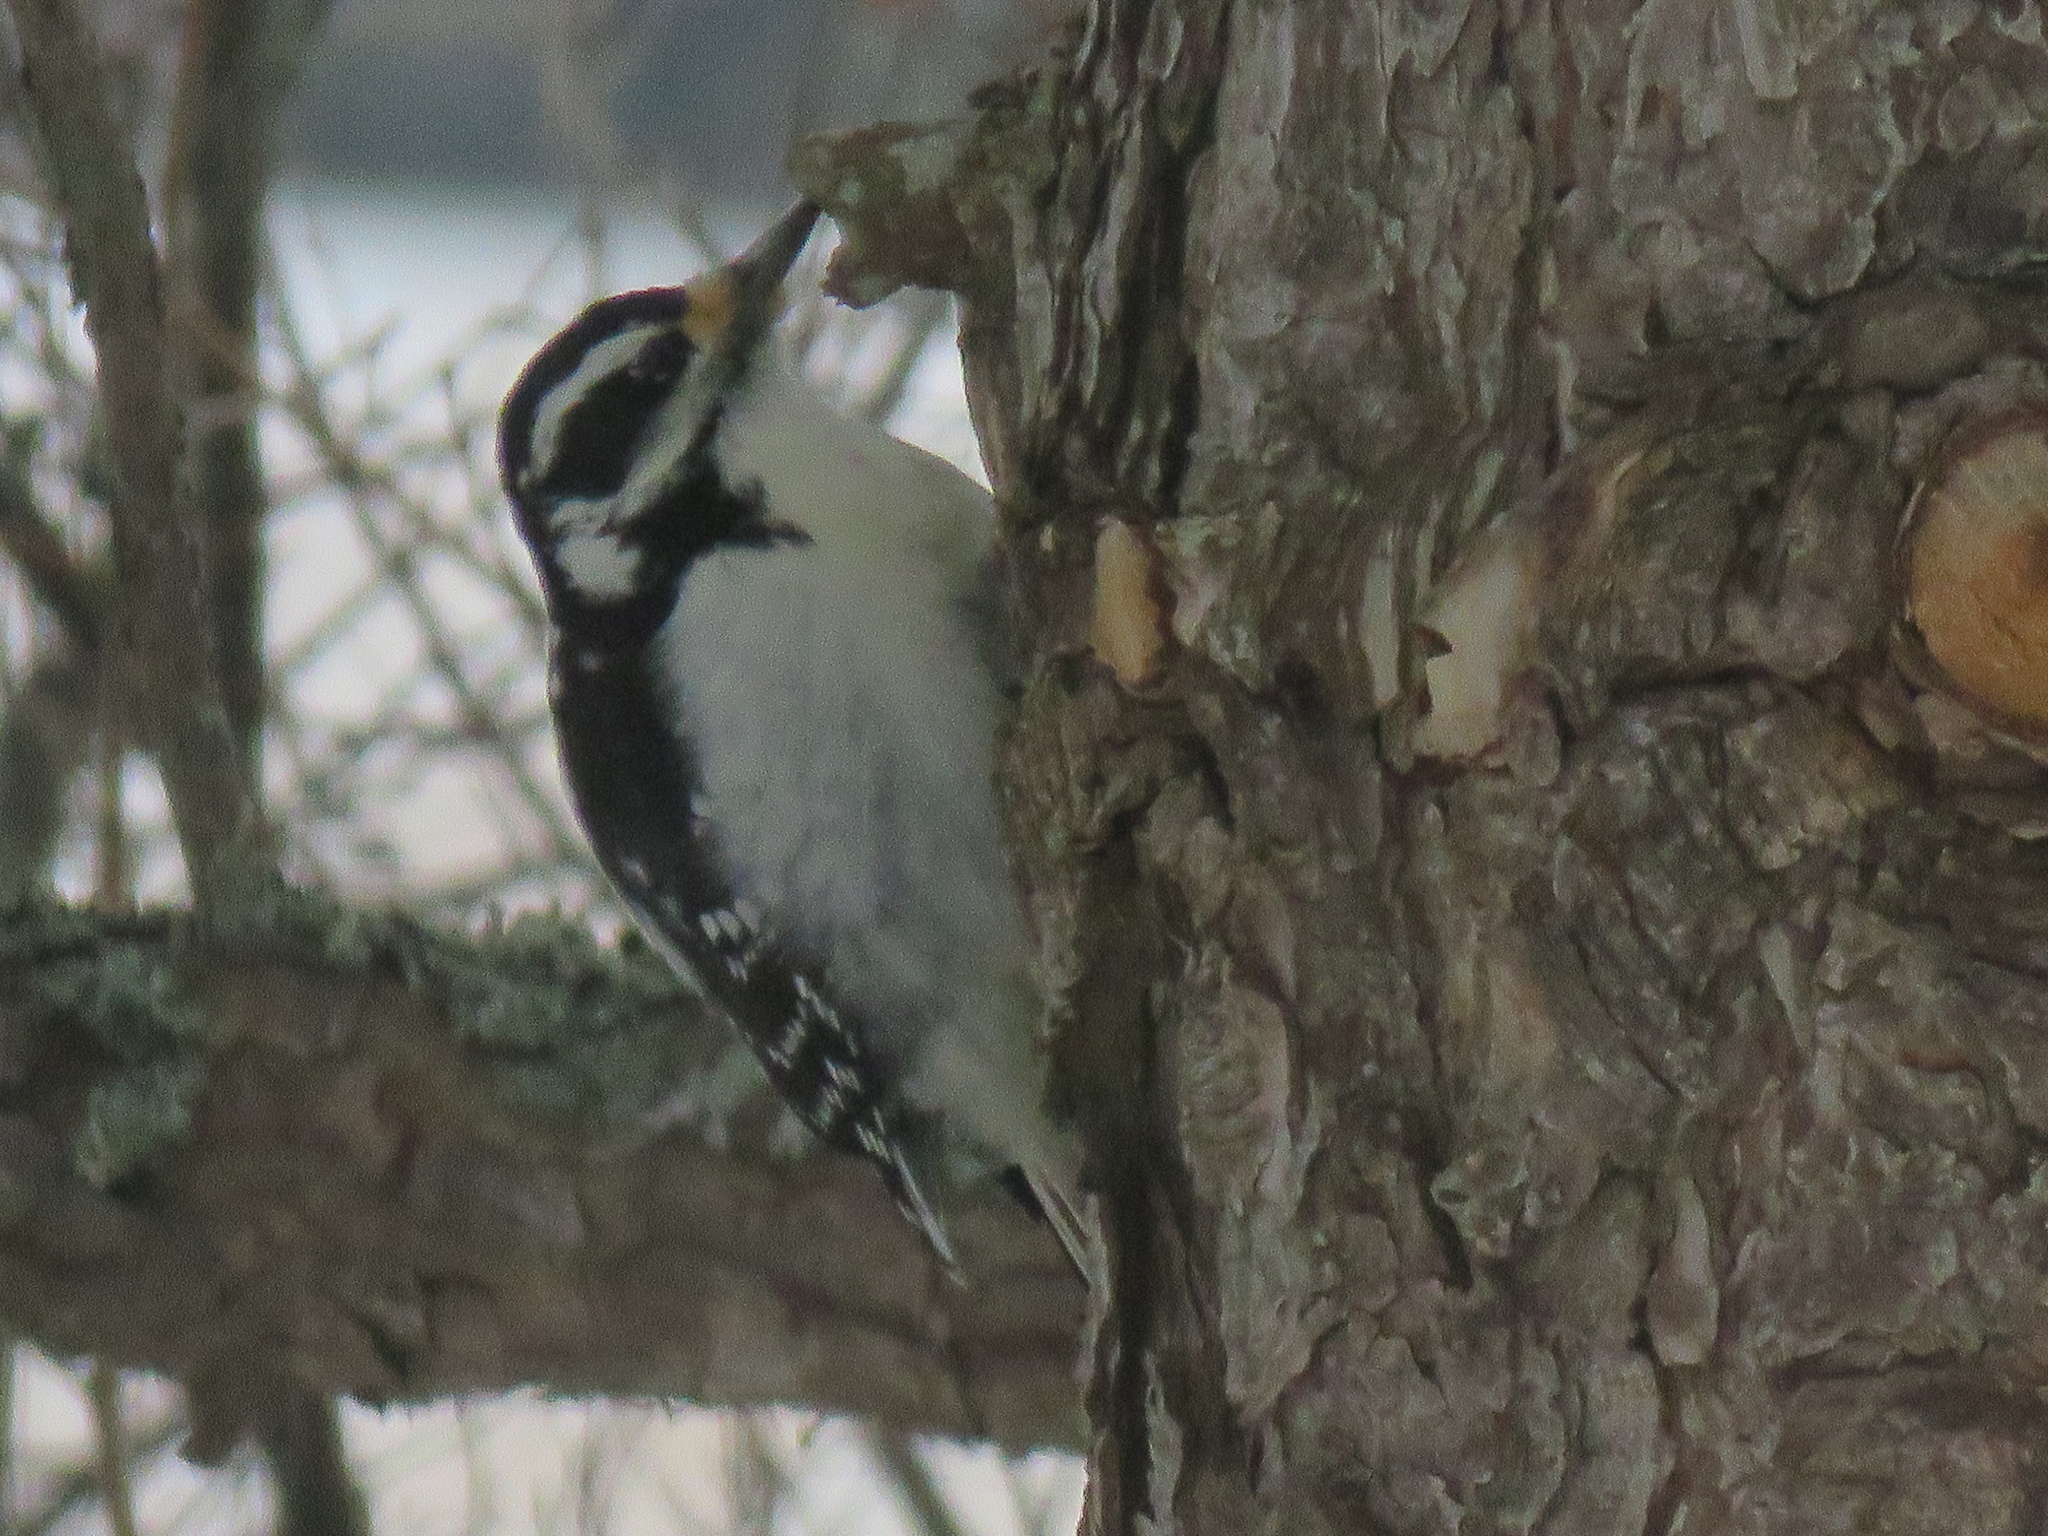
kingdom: Animalia
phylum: Chordata
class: Aves
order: Piciformes
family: Picidae
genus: Dryobates
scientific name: Dryobates pubescens
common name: Downy woodpecker
